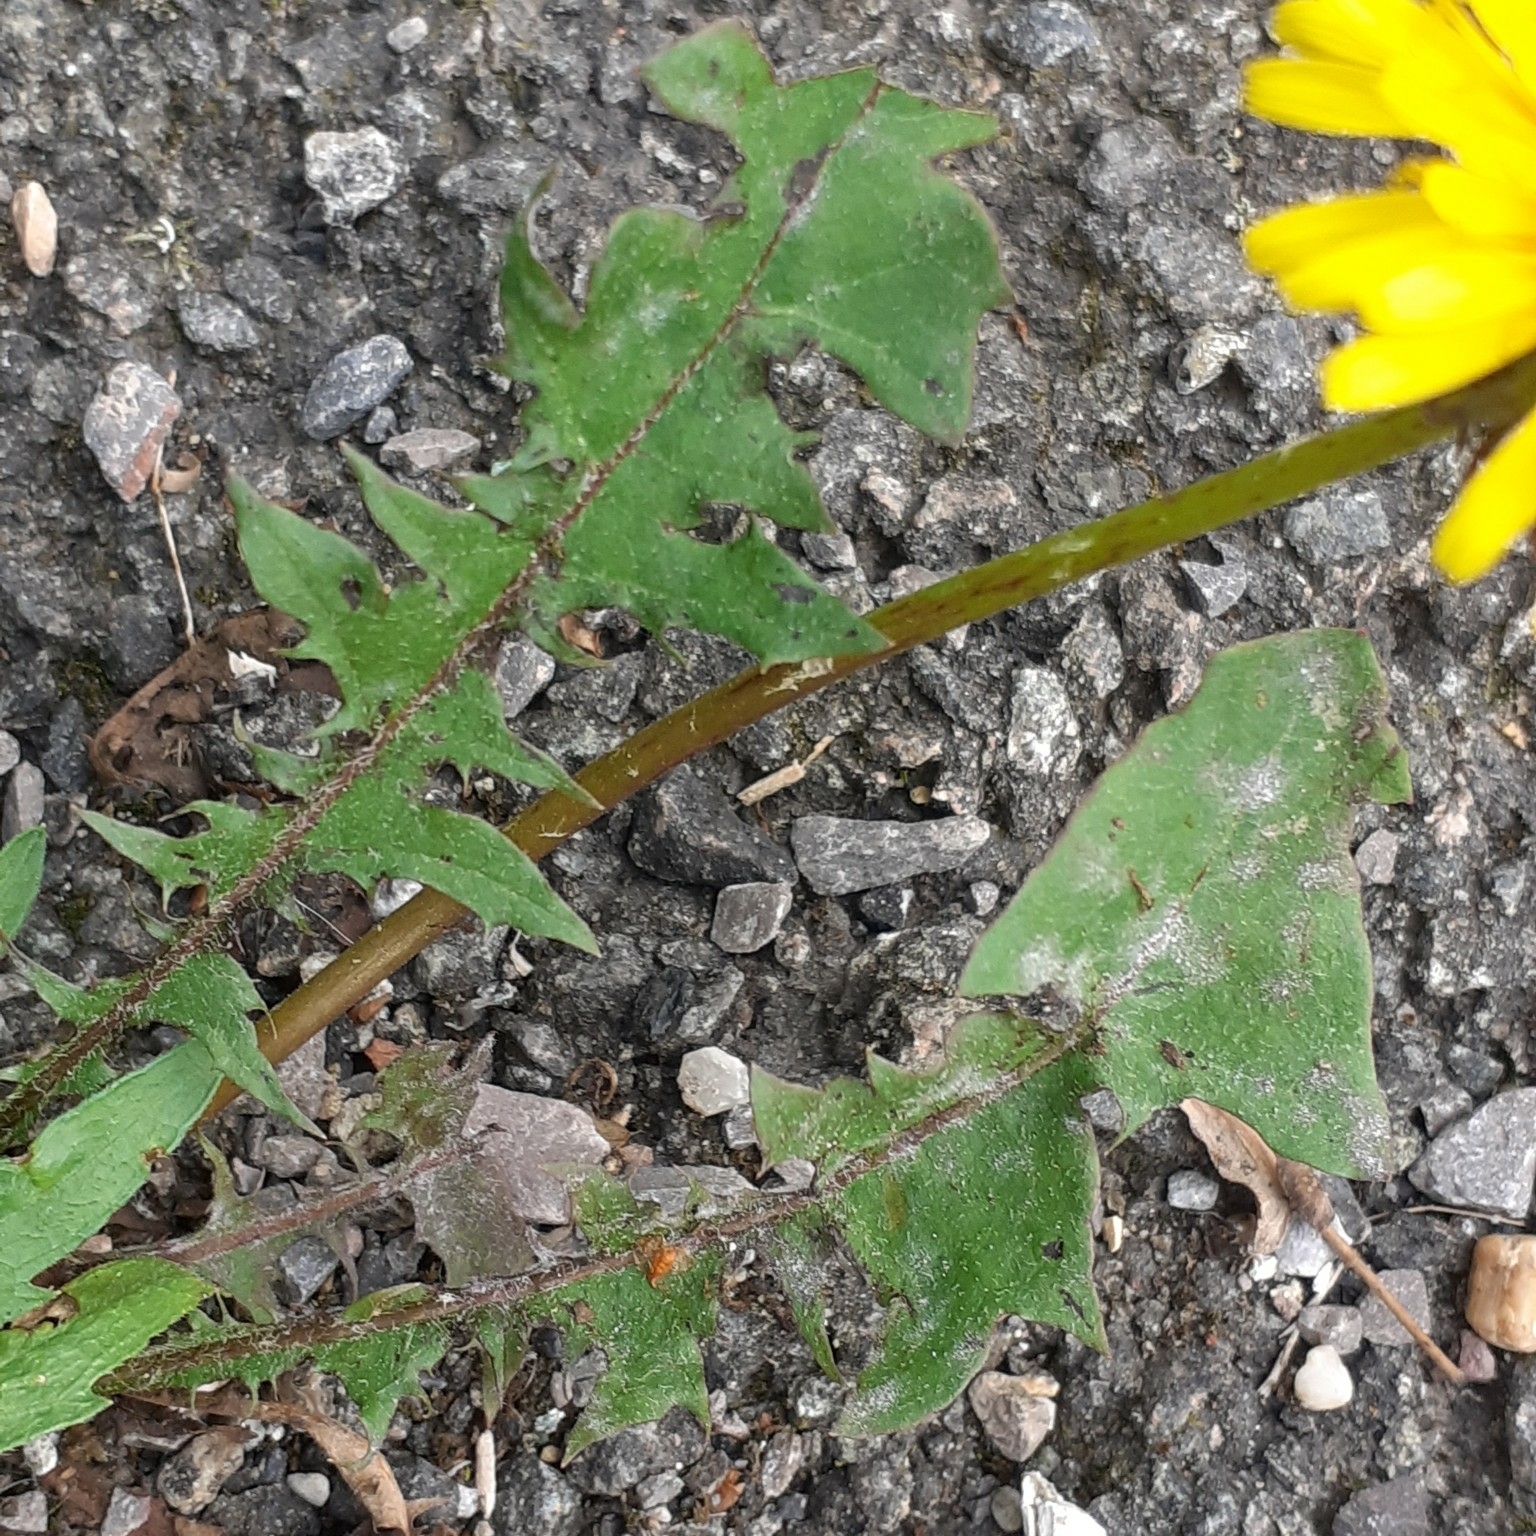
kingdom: Plantae
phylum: Tracheophyta
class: Magnoliopsida
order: Asterales
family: Asteraceae
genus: Taraxacum
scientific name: Taraxacum officinale
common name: Common dandelion
